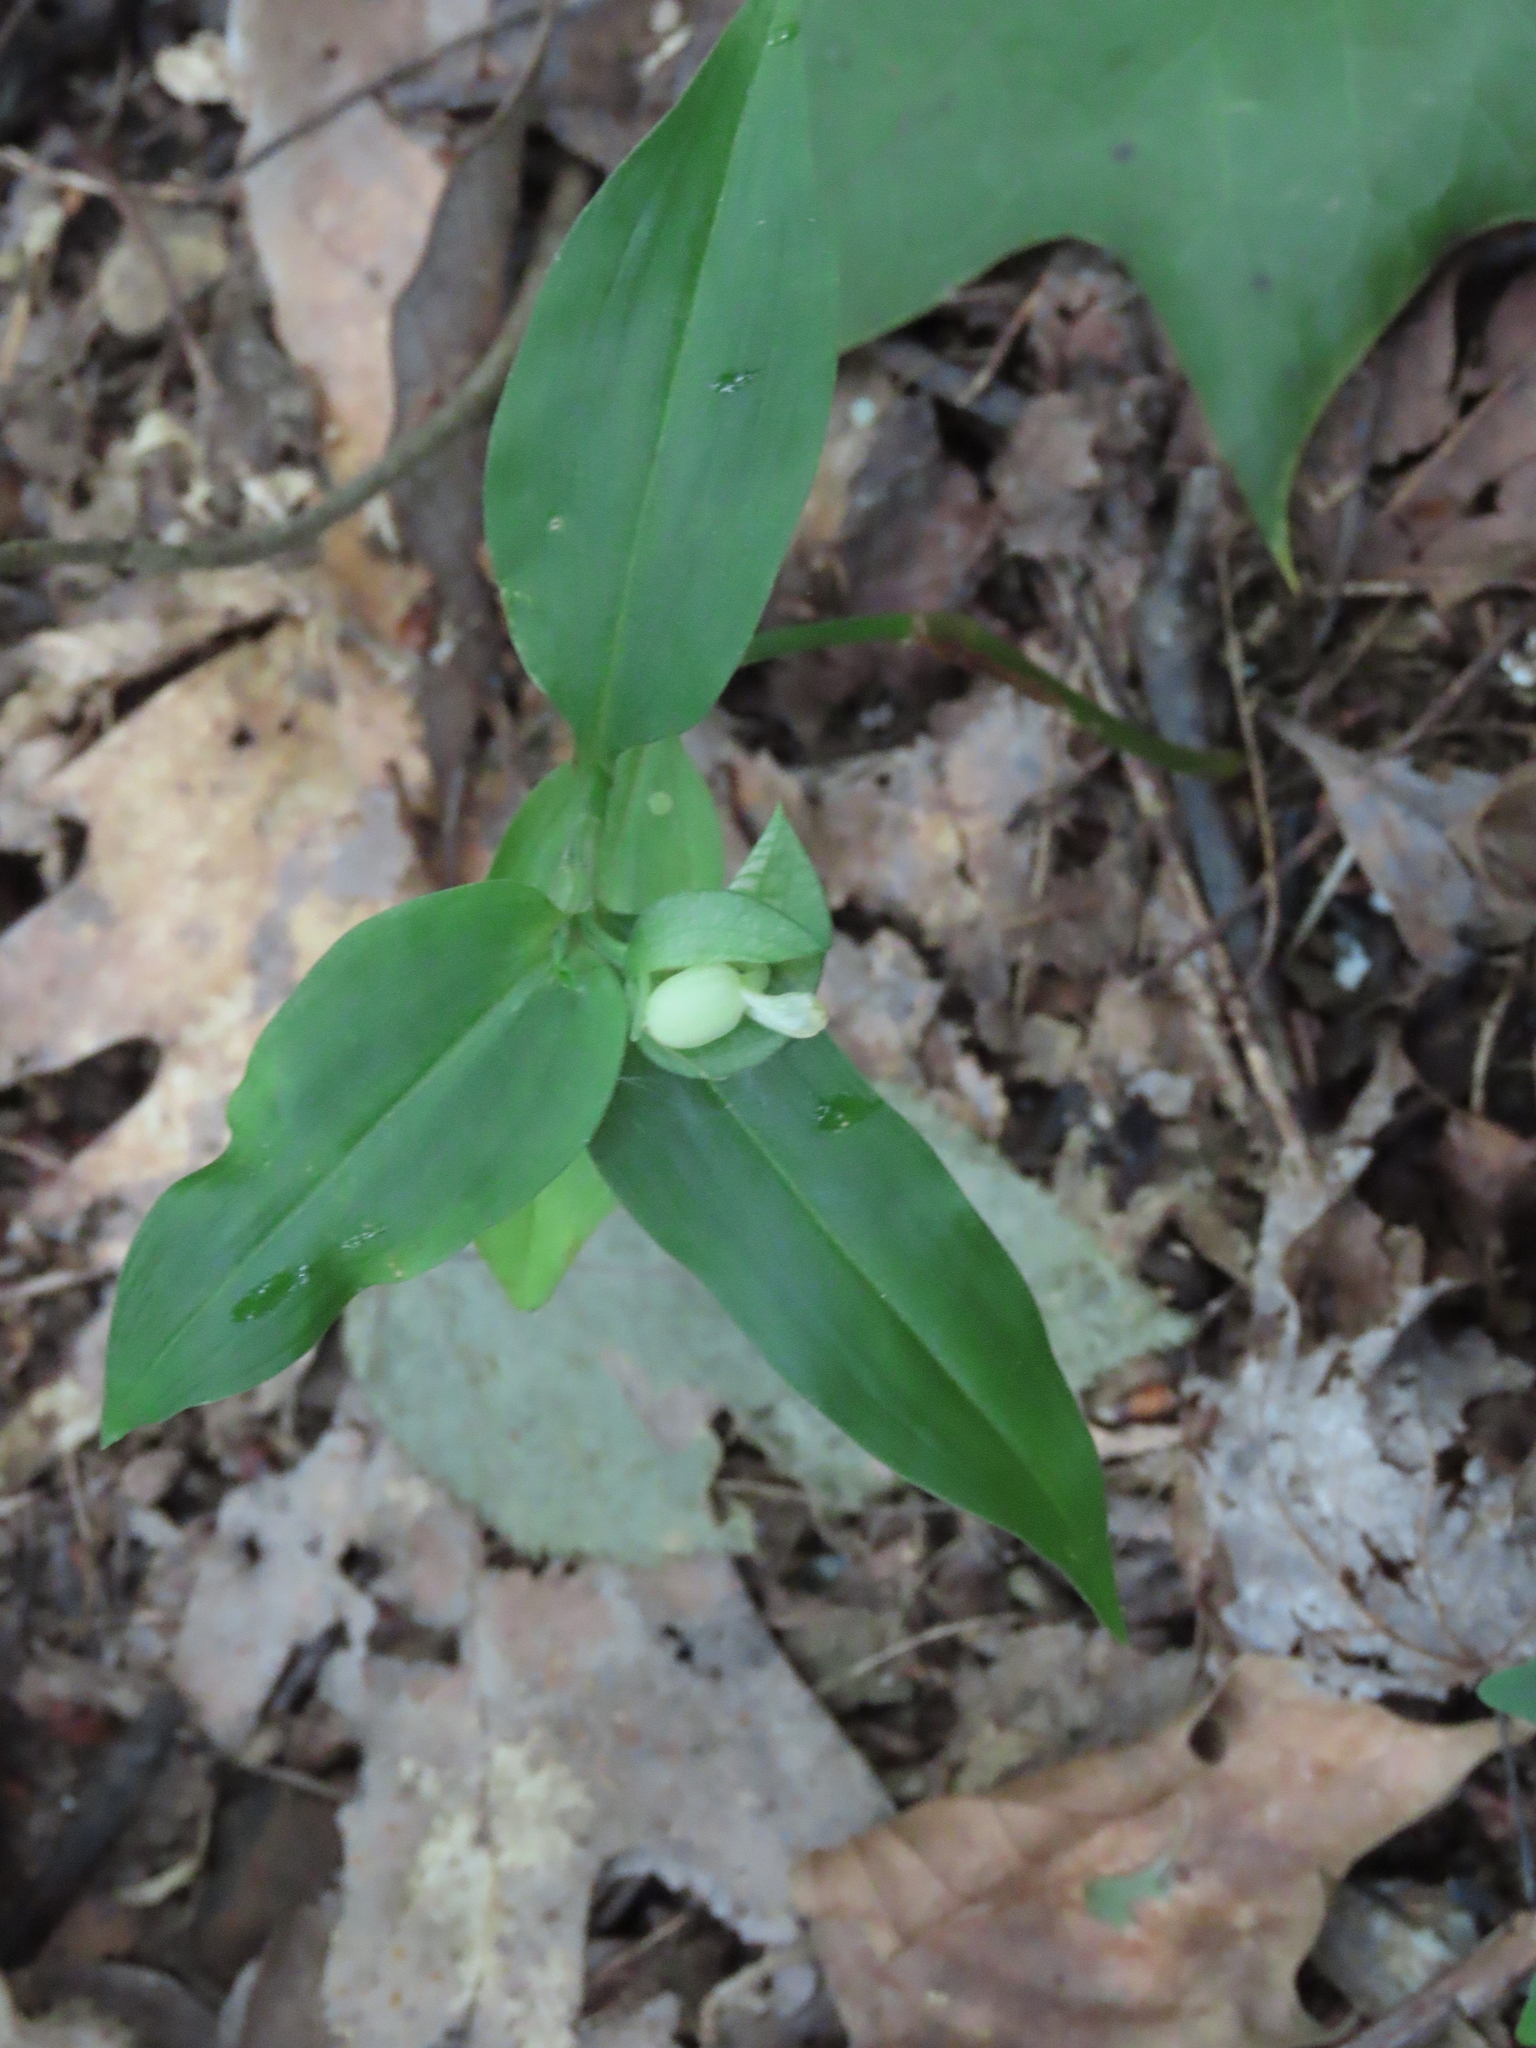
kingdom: Plantae
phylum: Tracheophyta
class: Liliopsida
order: Commelinales
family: Commelinaceae
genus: Commelina
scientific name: Commelina communis
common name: Asiatic dayflower
